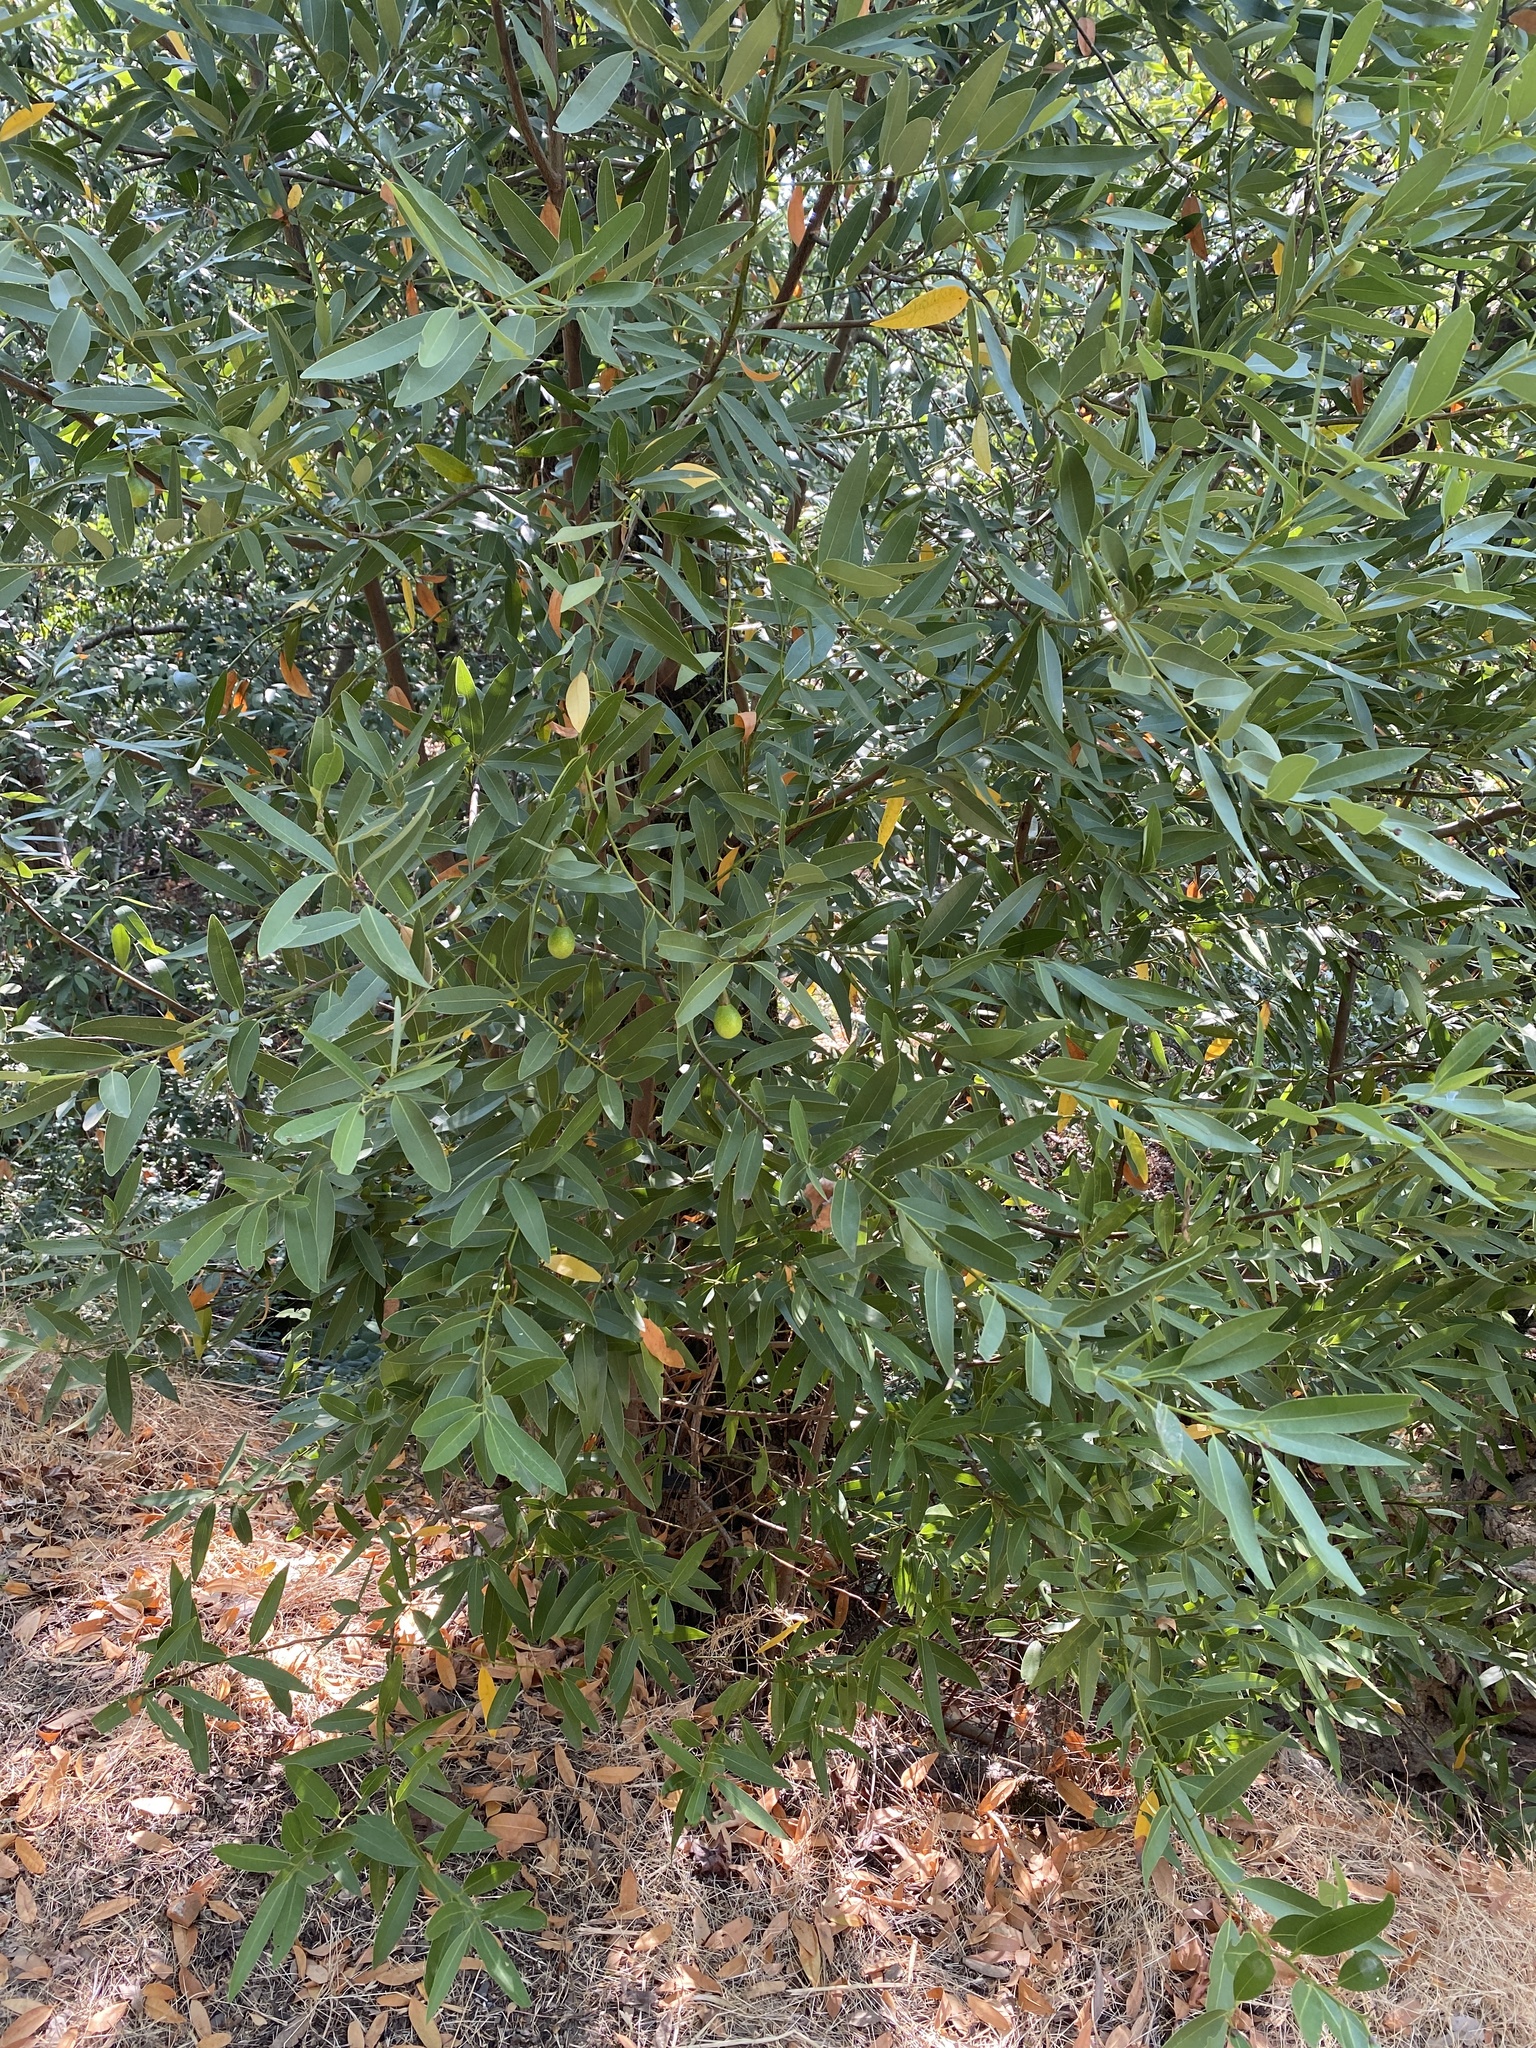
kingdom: Plantae
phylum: Tracheophyta
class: Magnoliopsida
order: Laurales
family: Lauraceae
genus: Umbellularia
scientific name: Umbellularia californica
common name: California bay
